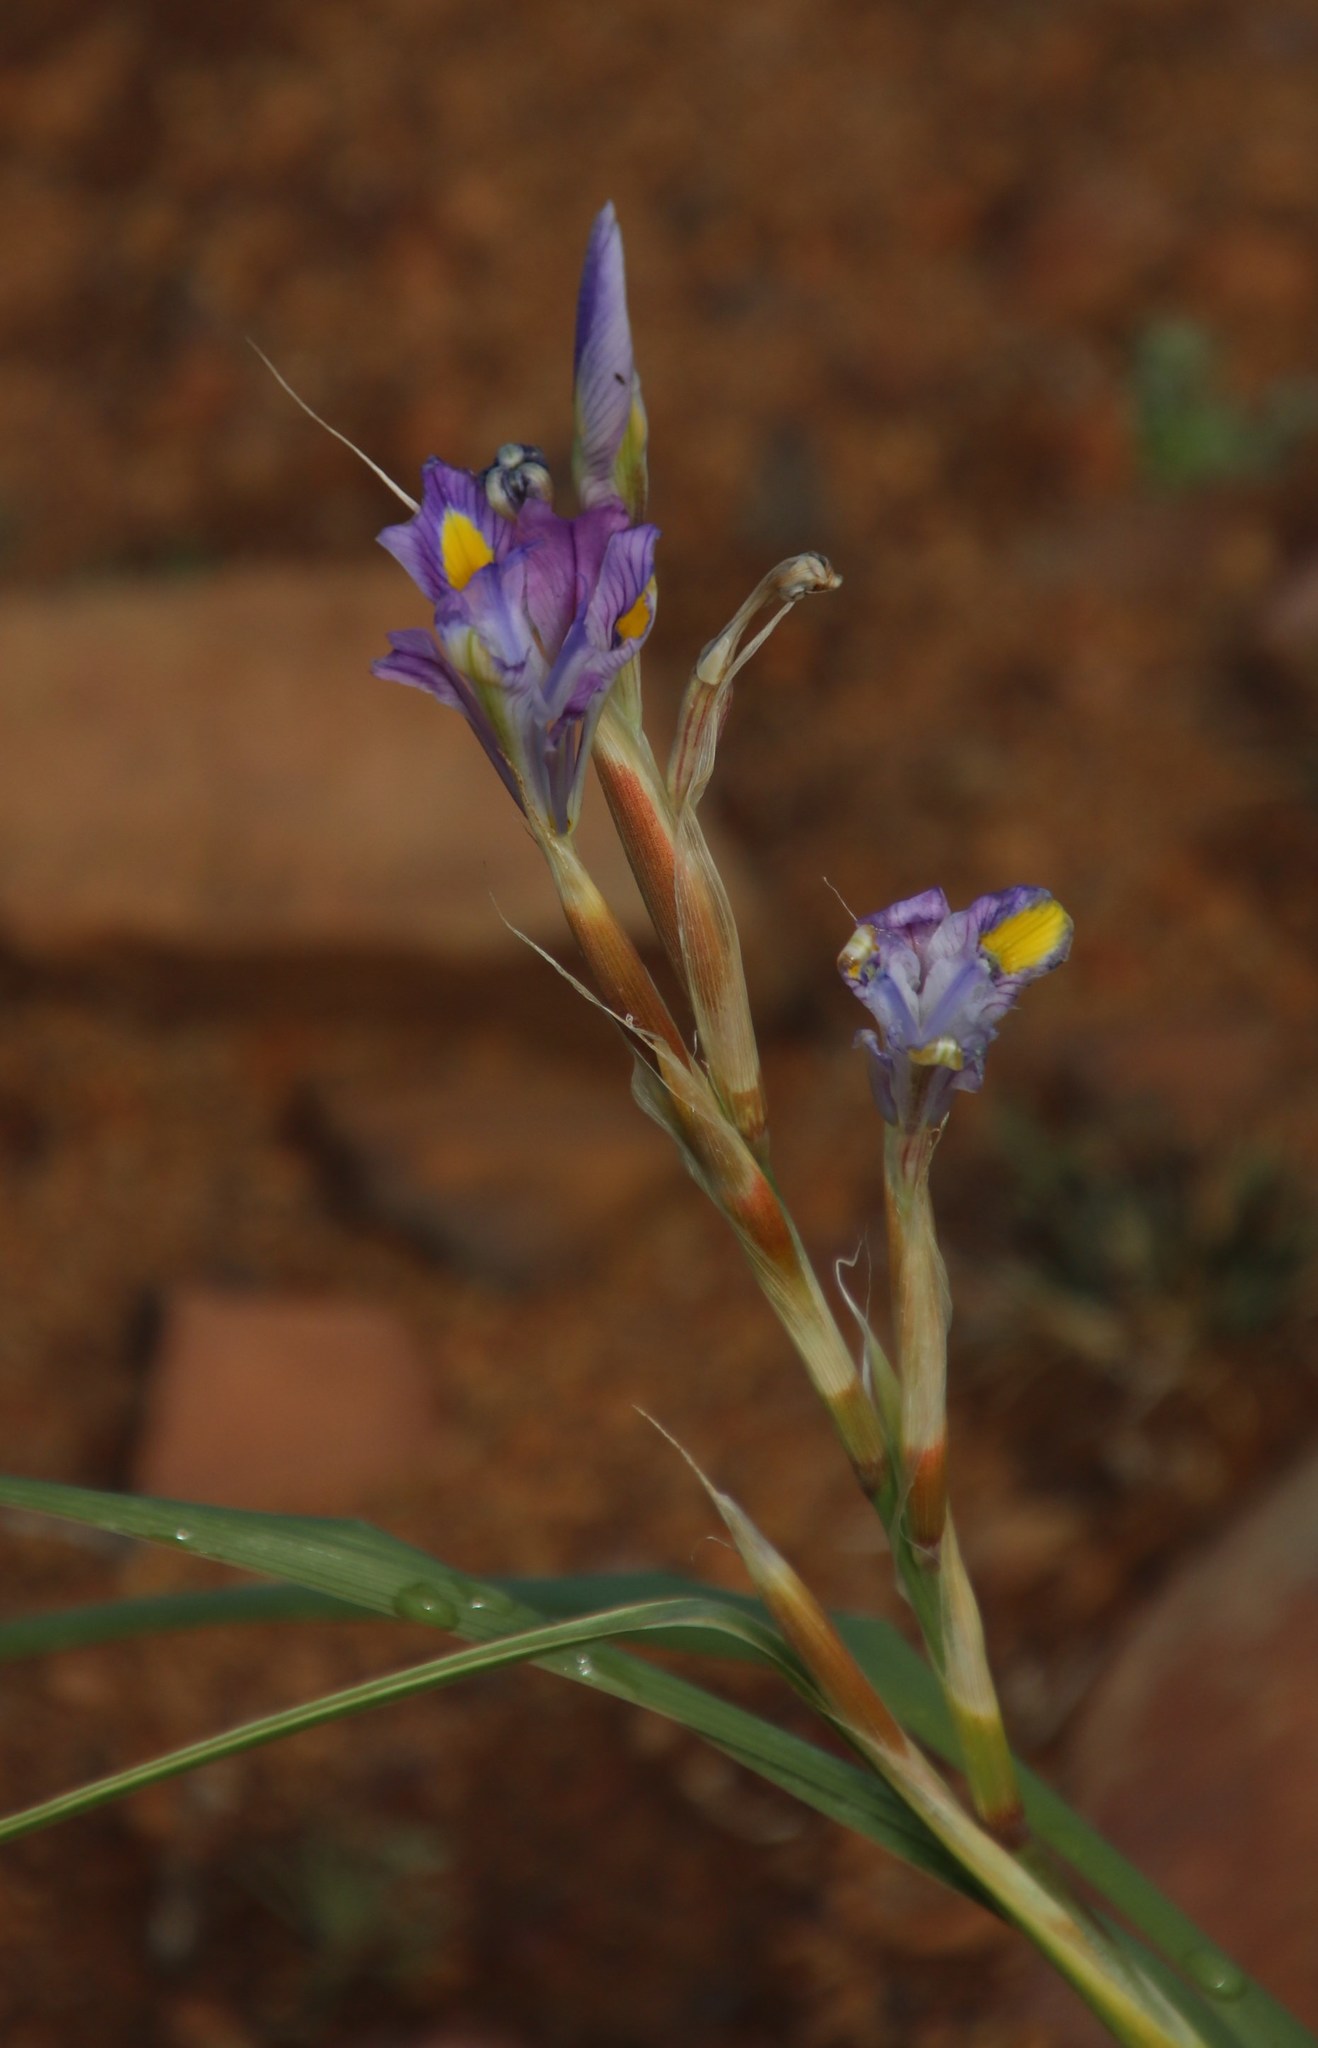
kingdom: Plantae
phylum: Tracheophyta
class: Liliopsida
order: Asparagales
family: Iridaceae
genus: Moraea
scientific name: Moraea polystachya
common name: Blue-tulip
